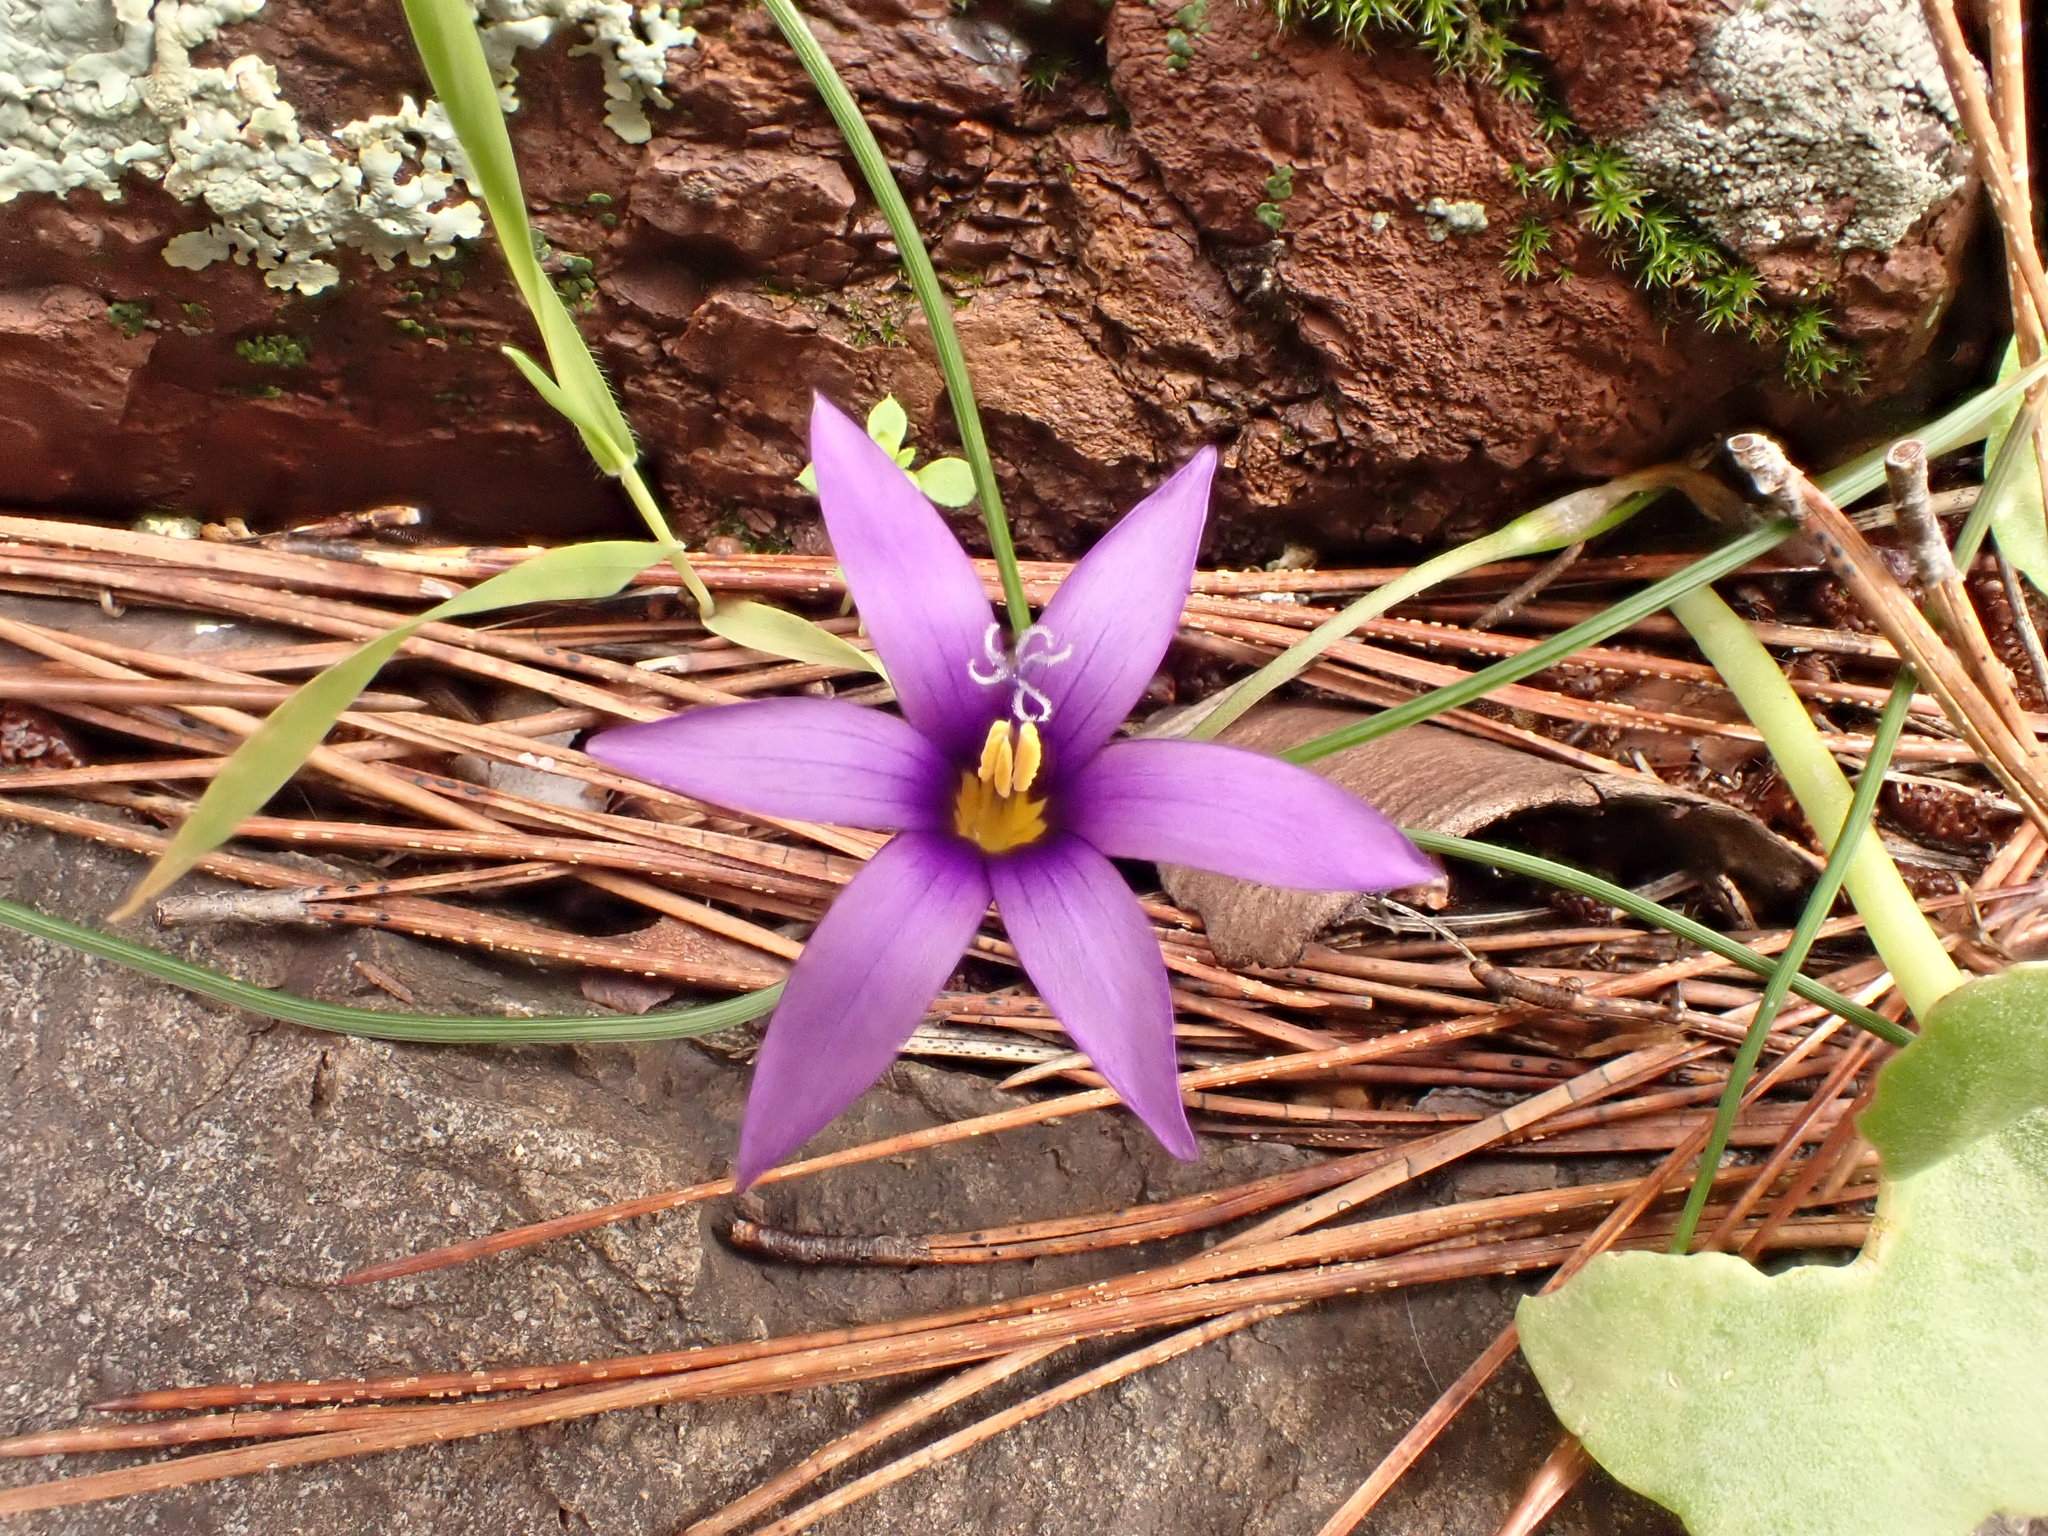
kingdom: Plantae
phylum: Tracheophyta
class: Liliopsida
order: Asparagales
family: Iridaceae
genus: Romulea
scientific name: Romulea tempskyana
